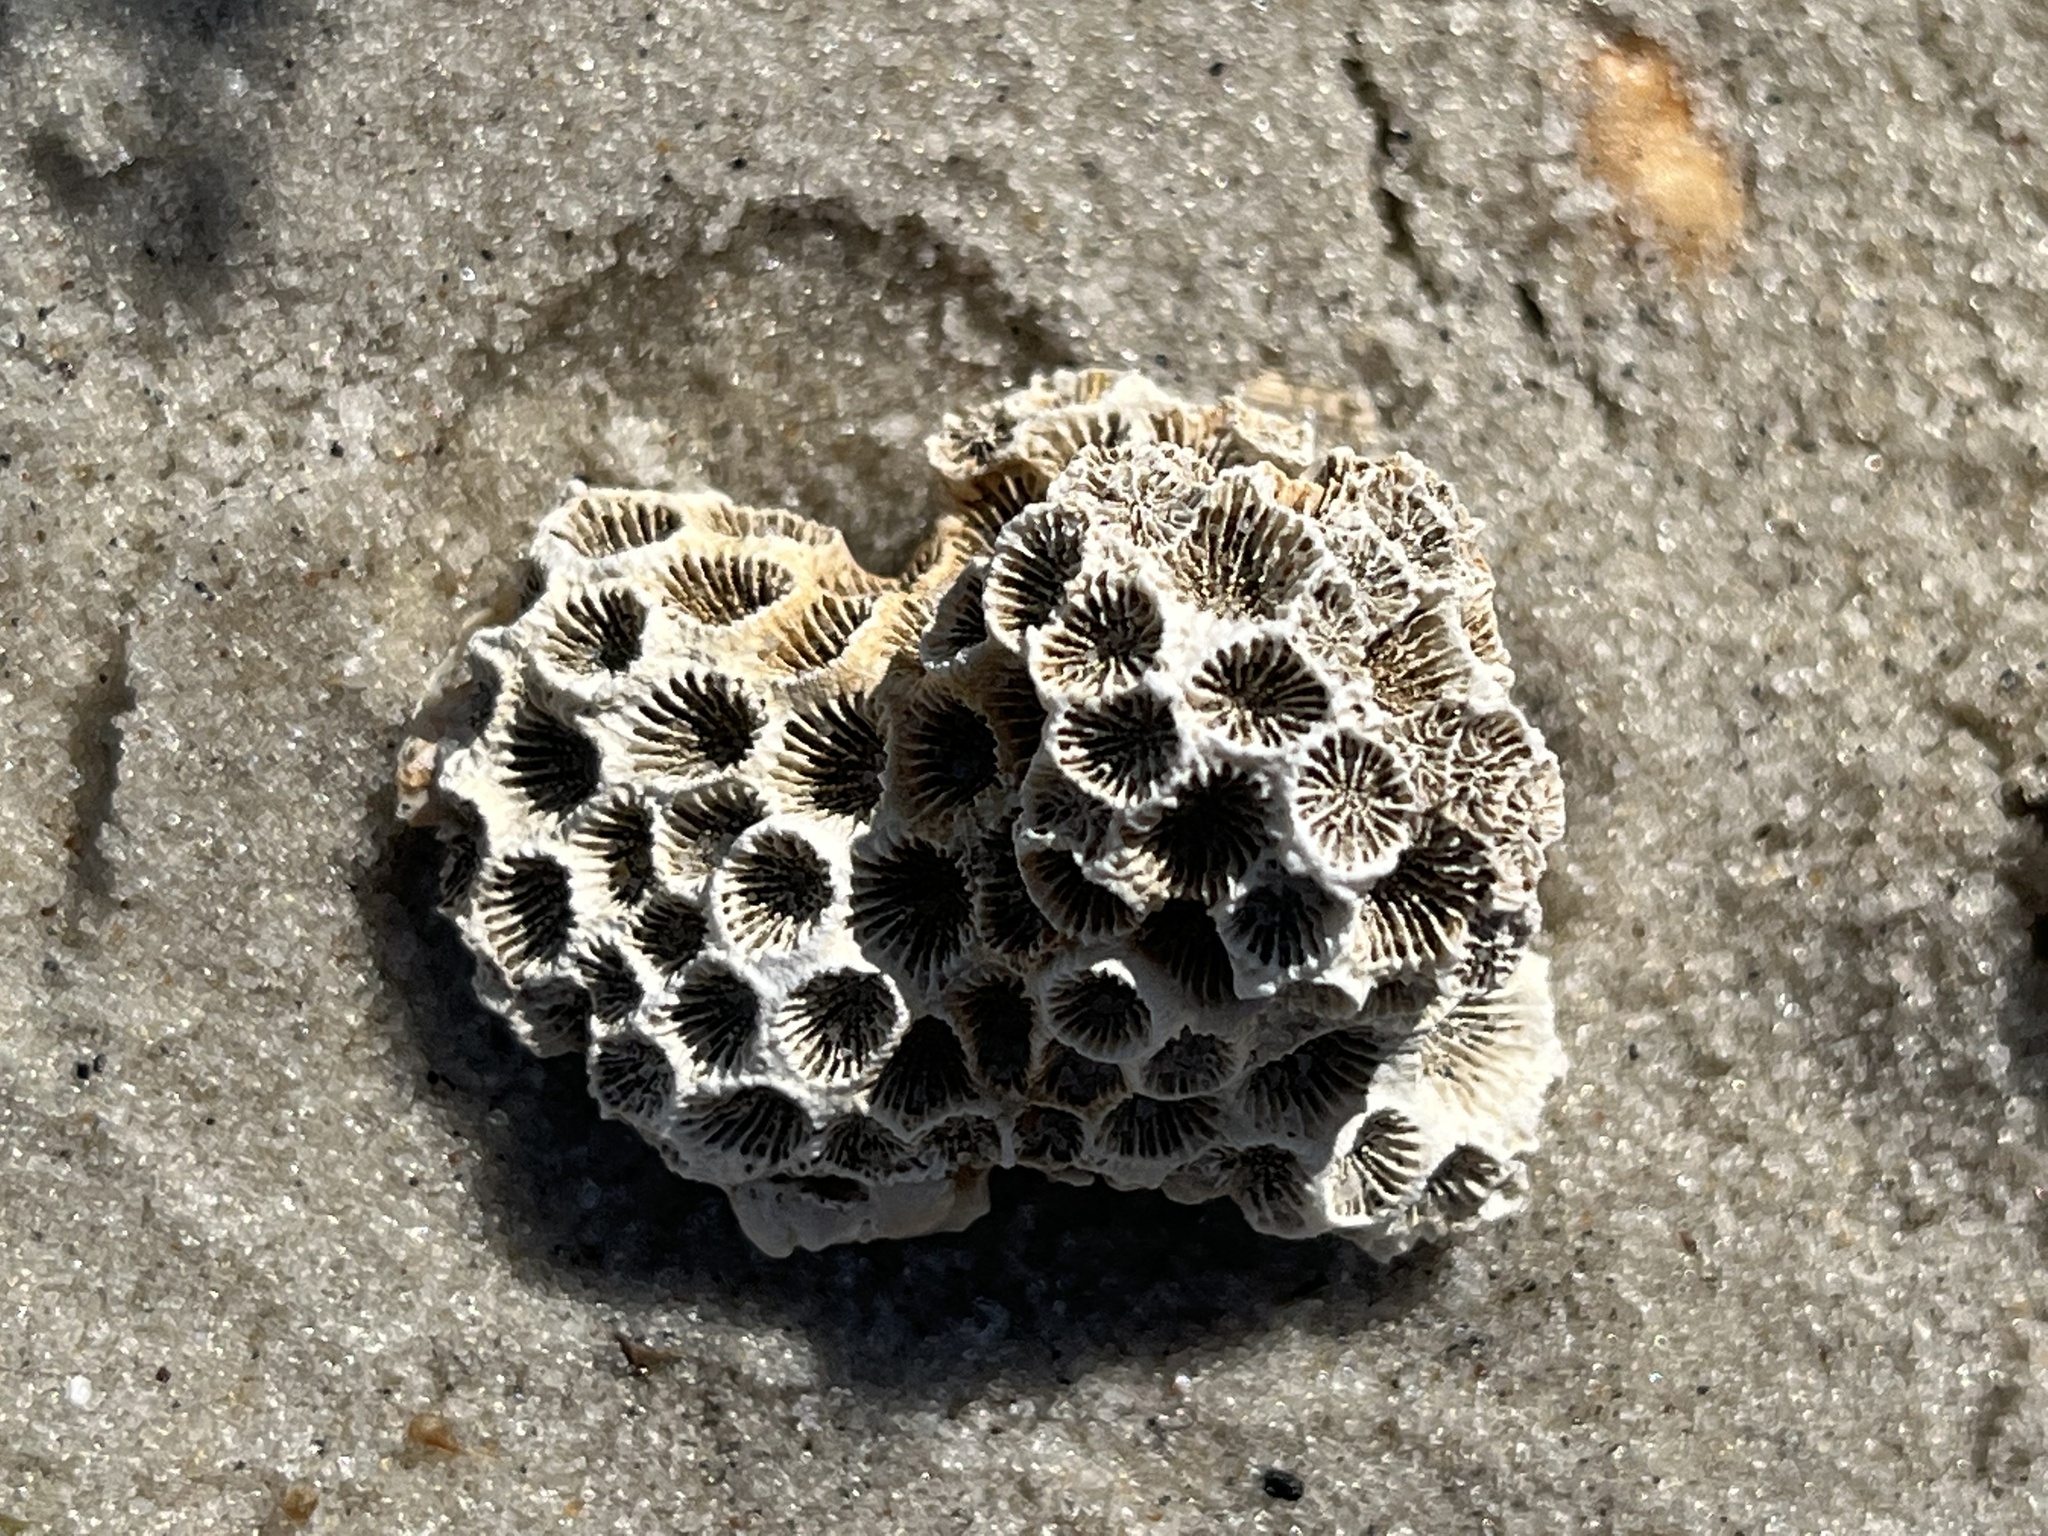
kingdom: Animalia
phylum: Cnidaria
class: Anthozoa
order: Scleractinia
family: Astrangiidae
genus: Astrangia
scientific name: Astrangia poculata
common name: Northern star coral
